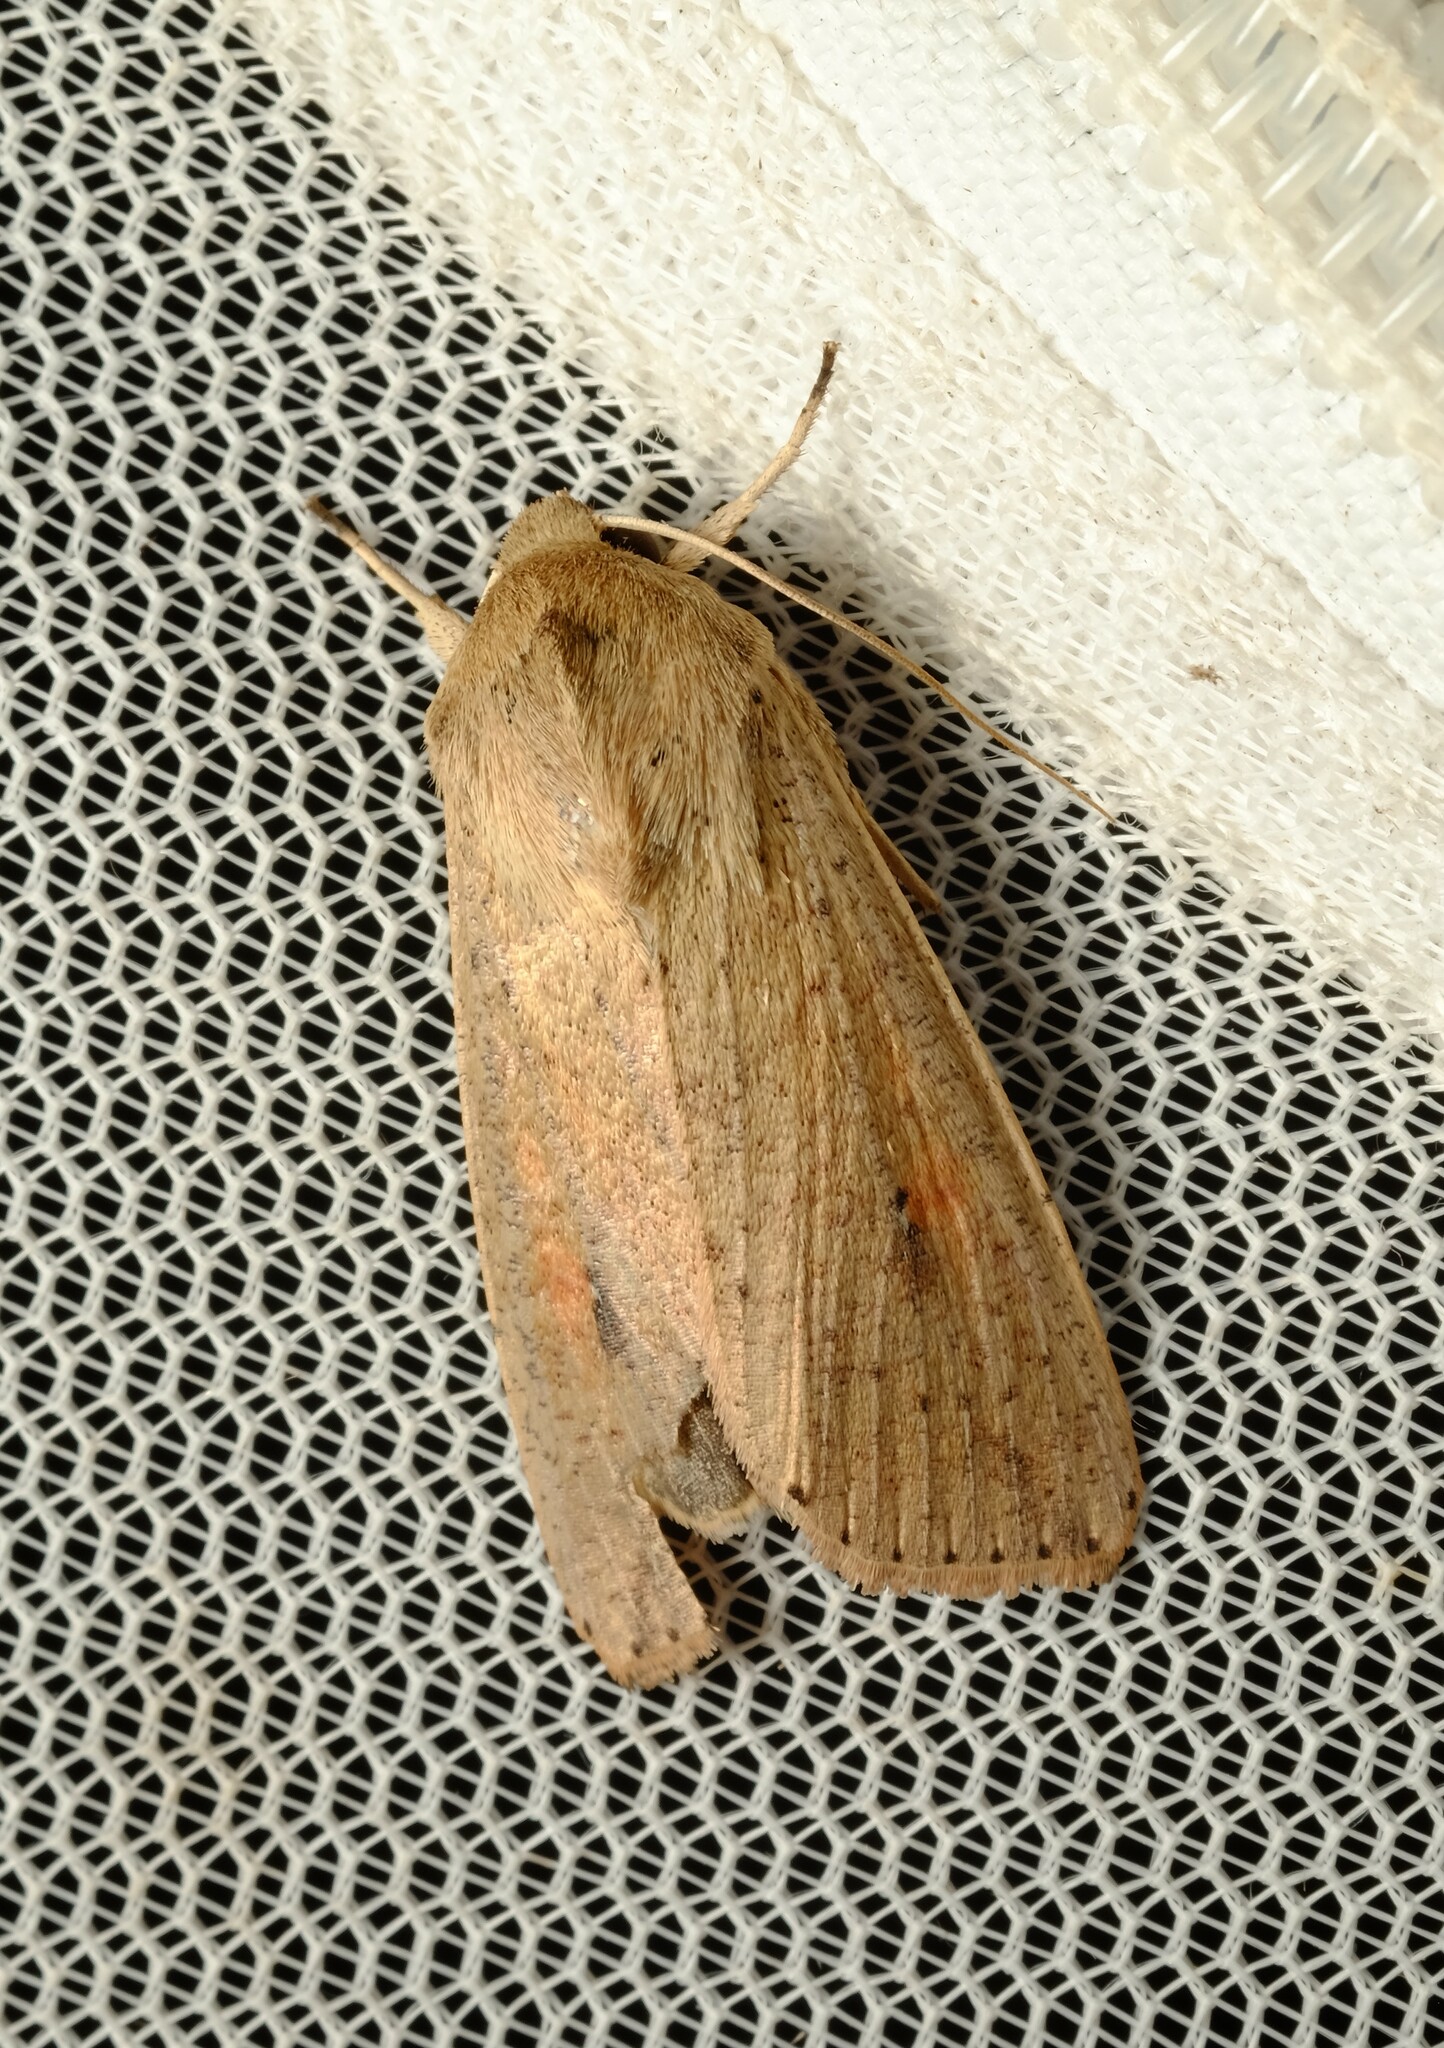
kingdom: Animalia
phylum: Arthropoda
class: Insecta
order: Lepidoptera
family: Noctuidae
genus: Mythimna
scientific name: Mythimna convecta
